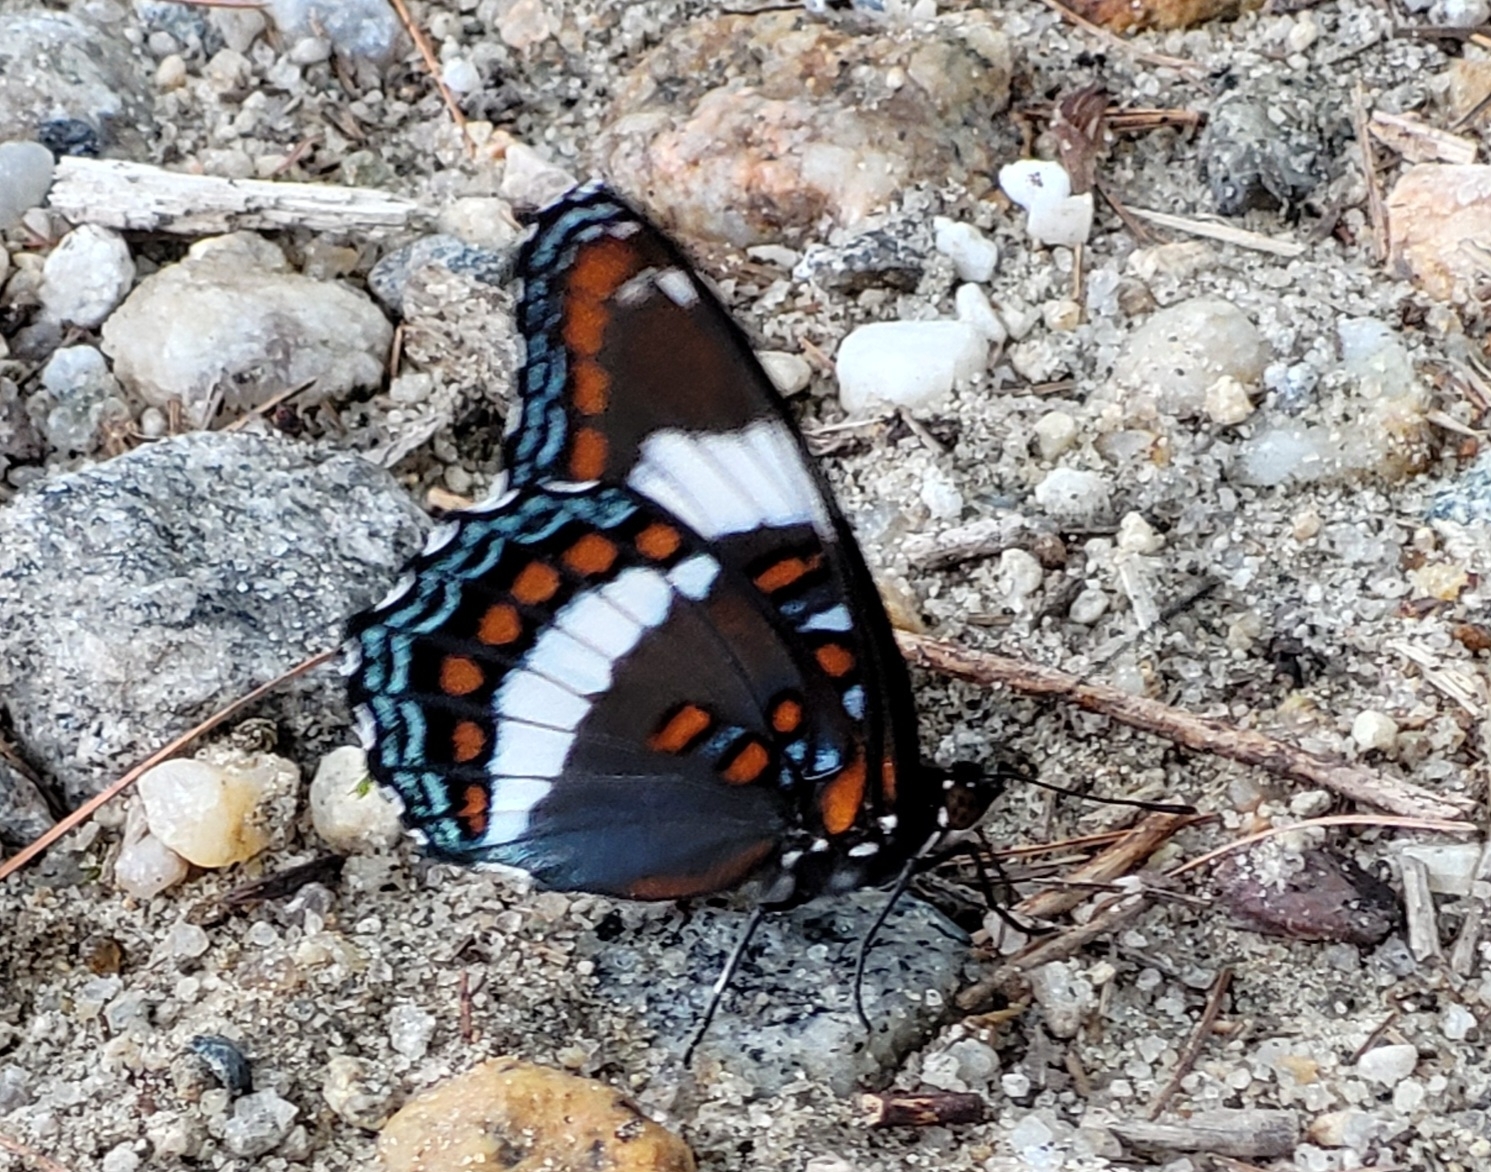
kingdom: Animalia
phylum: Arthropoda
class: Insecta
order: Lepidoptera
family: Nymphalidae
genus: Limenitis
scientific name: Limenitis arthemis
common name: Red-spotted admiral
